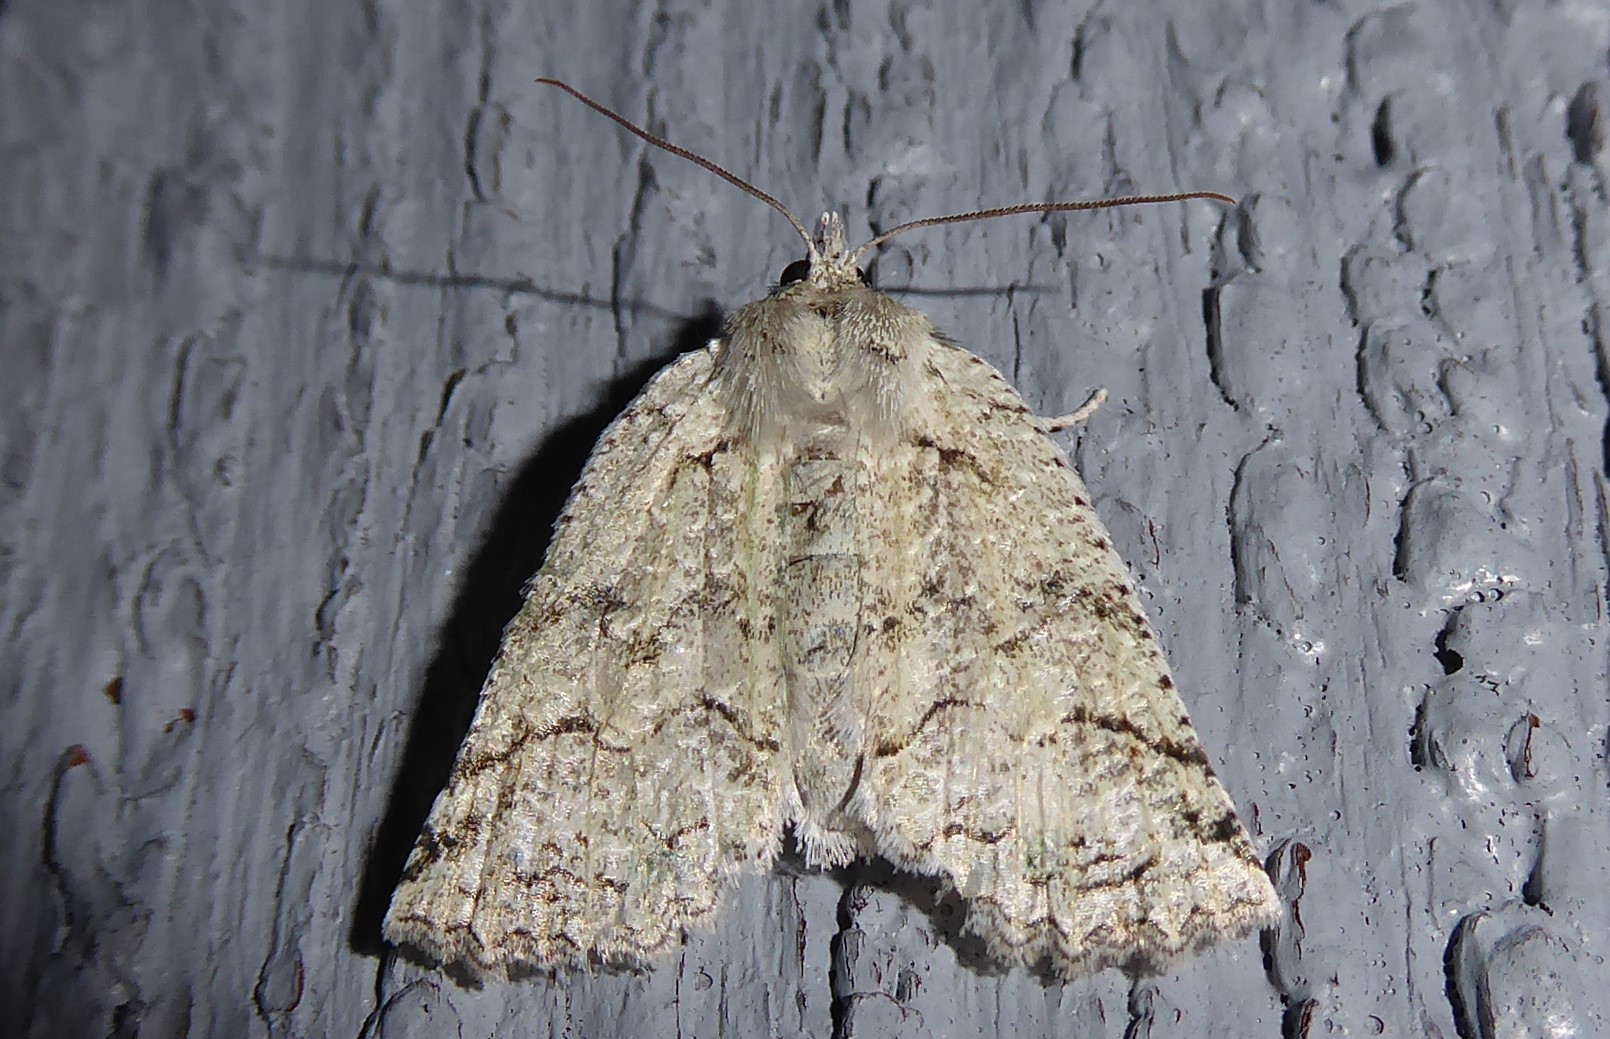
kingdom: Animalia
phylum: Arthropoda
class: Insecta
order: Lepidoptera
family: Geometridae
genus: Declana
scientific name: Declana floccosa
